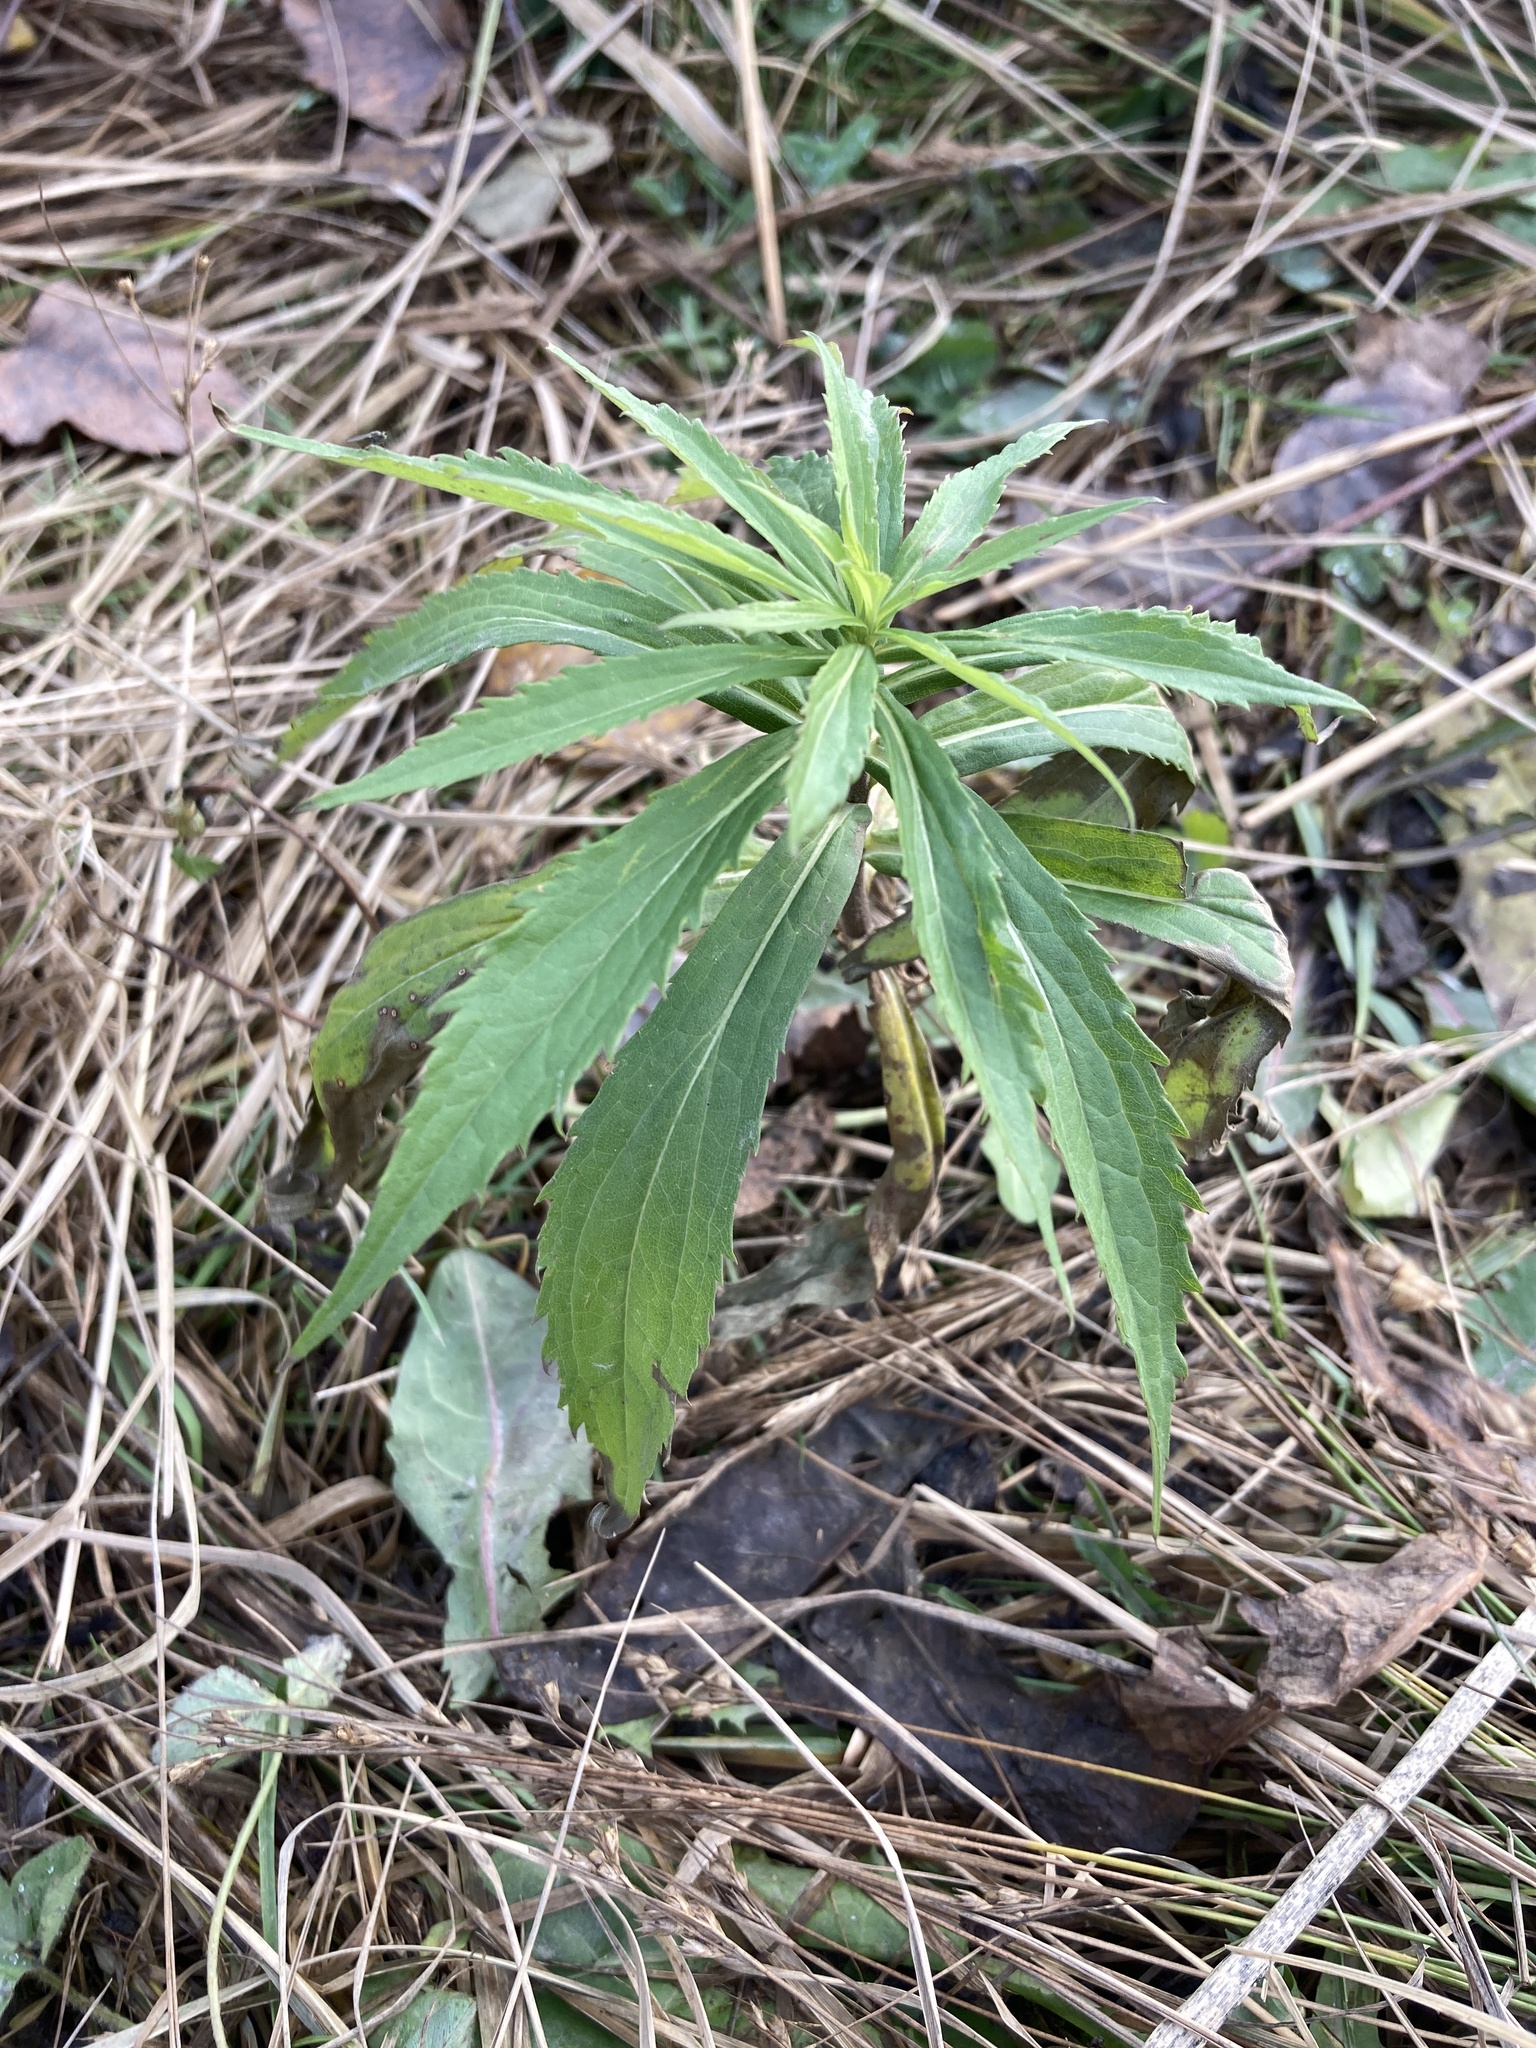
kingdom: Plantae
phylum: Tracheophyta
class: Magnoliopsida
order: Asterales
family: Asteraceae
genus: Solidago
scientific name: Solidago canadensis
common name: Canada goldenrod
